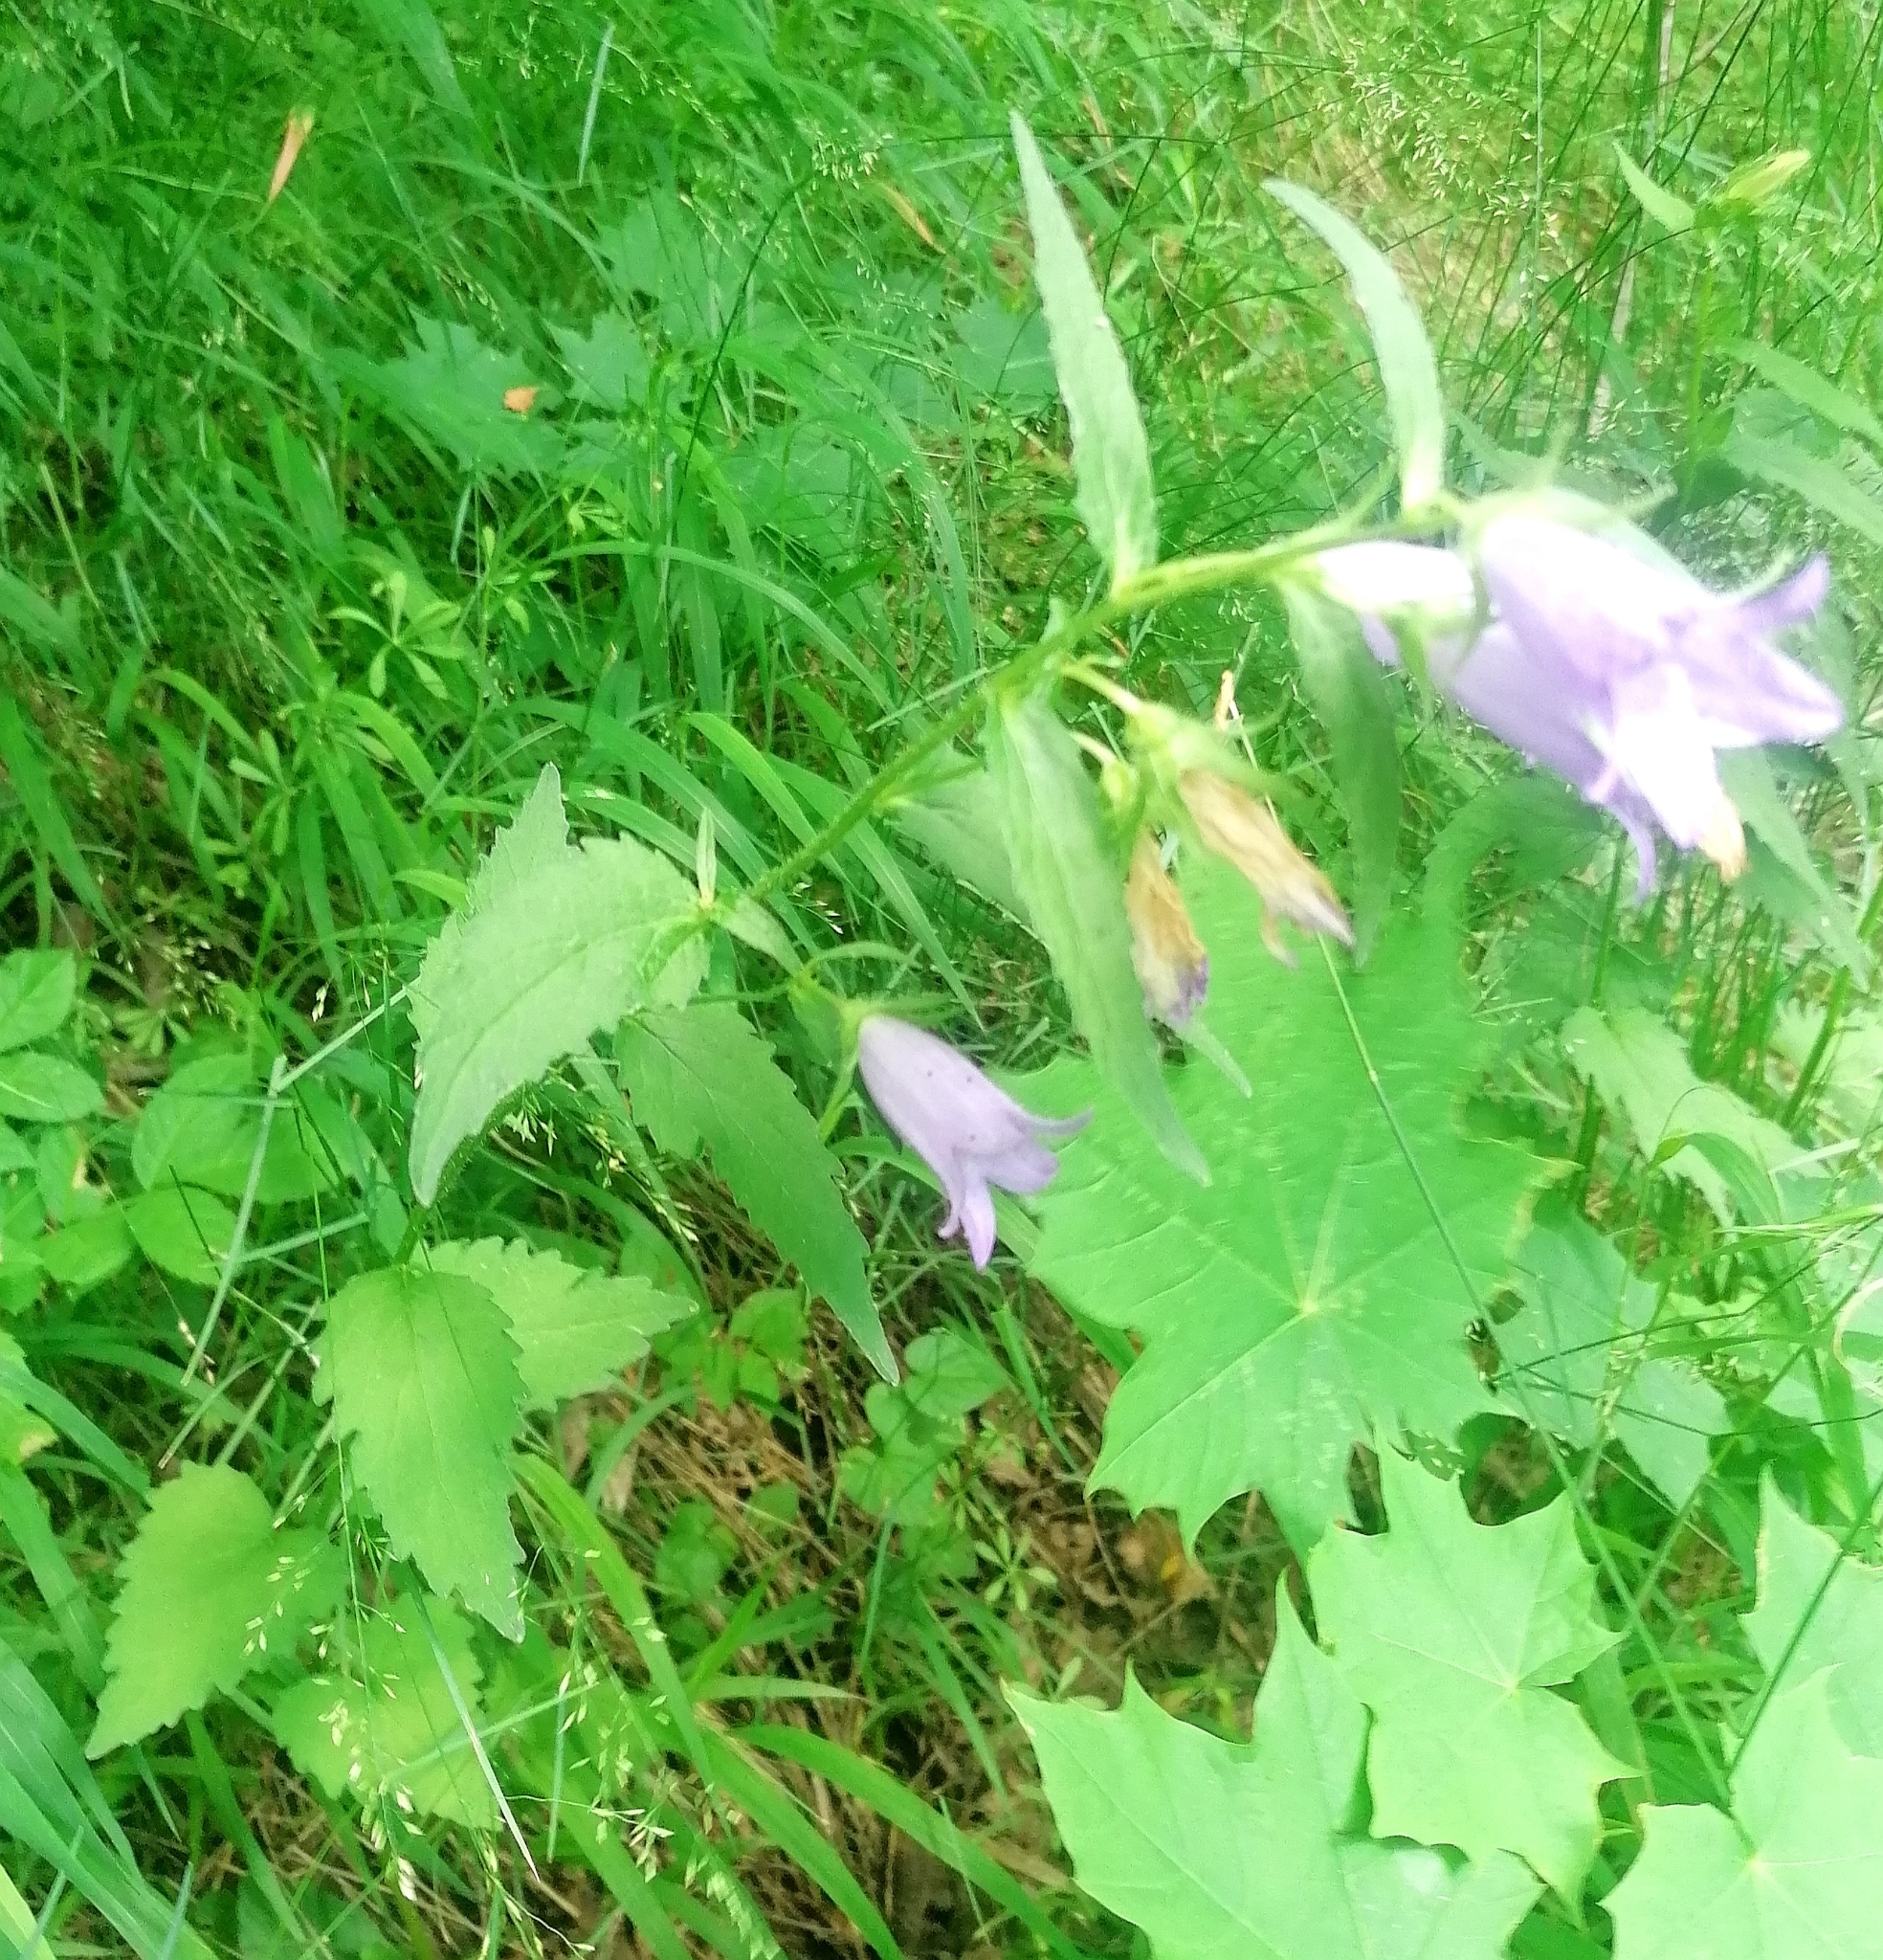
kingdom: Plantae
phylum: Tracheophyta
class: Magnoliopsida
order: Asterales
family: Campanulaceae
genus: Campanula
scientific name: Campanula trachelium
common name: Nettle-leaved bellflower
